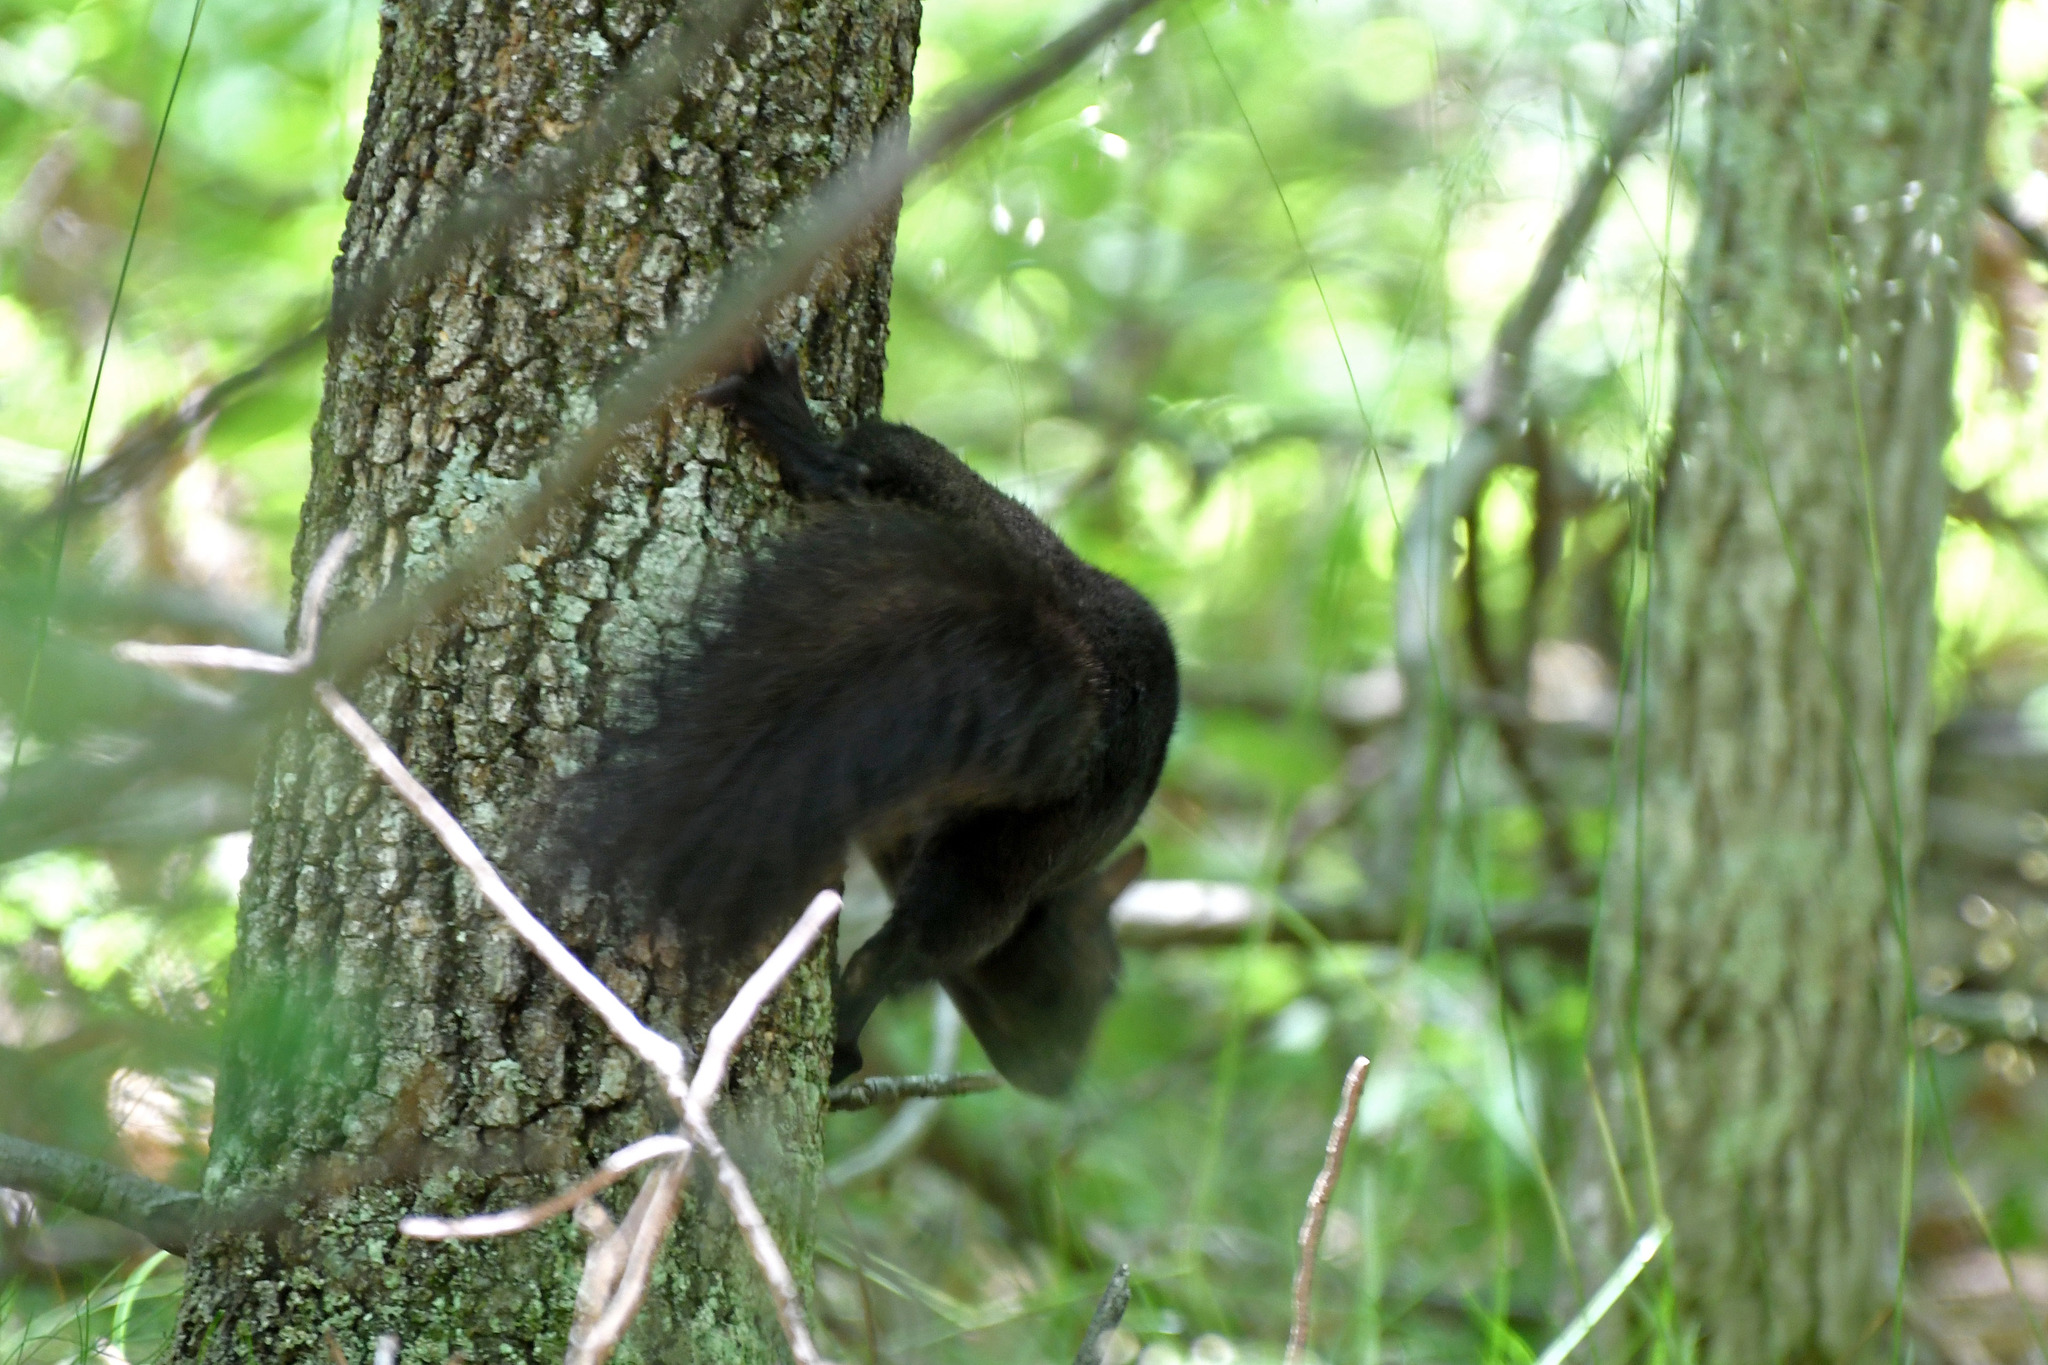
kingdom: Animalia
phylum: Chordata
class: Mammalia
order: Rodentia
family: Sciuridae
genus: Sciurus
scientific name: Sciurus carolinensis
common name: Eastern gray squirrel
